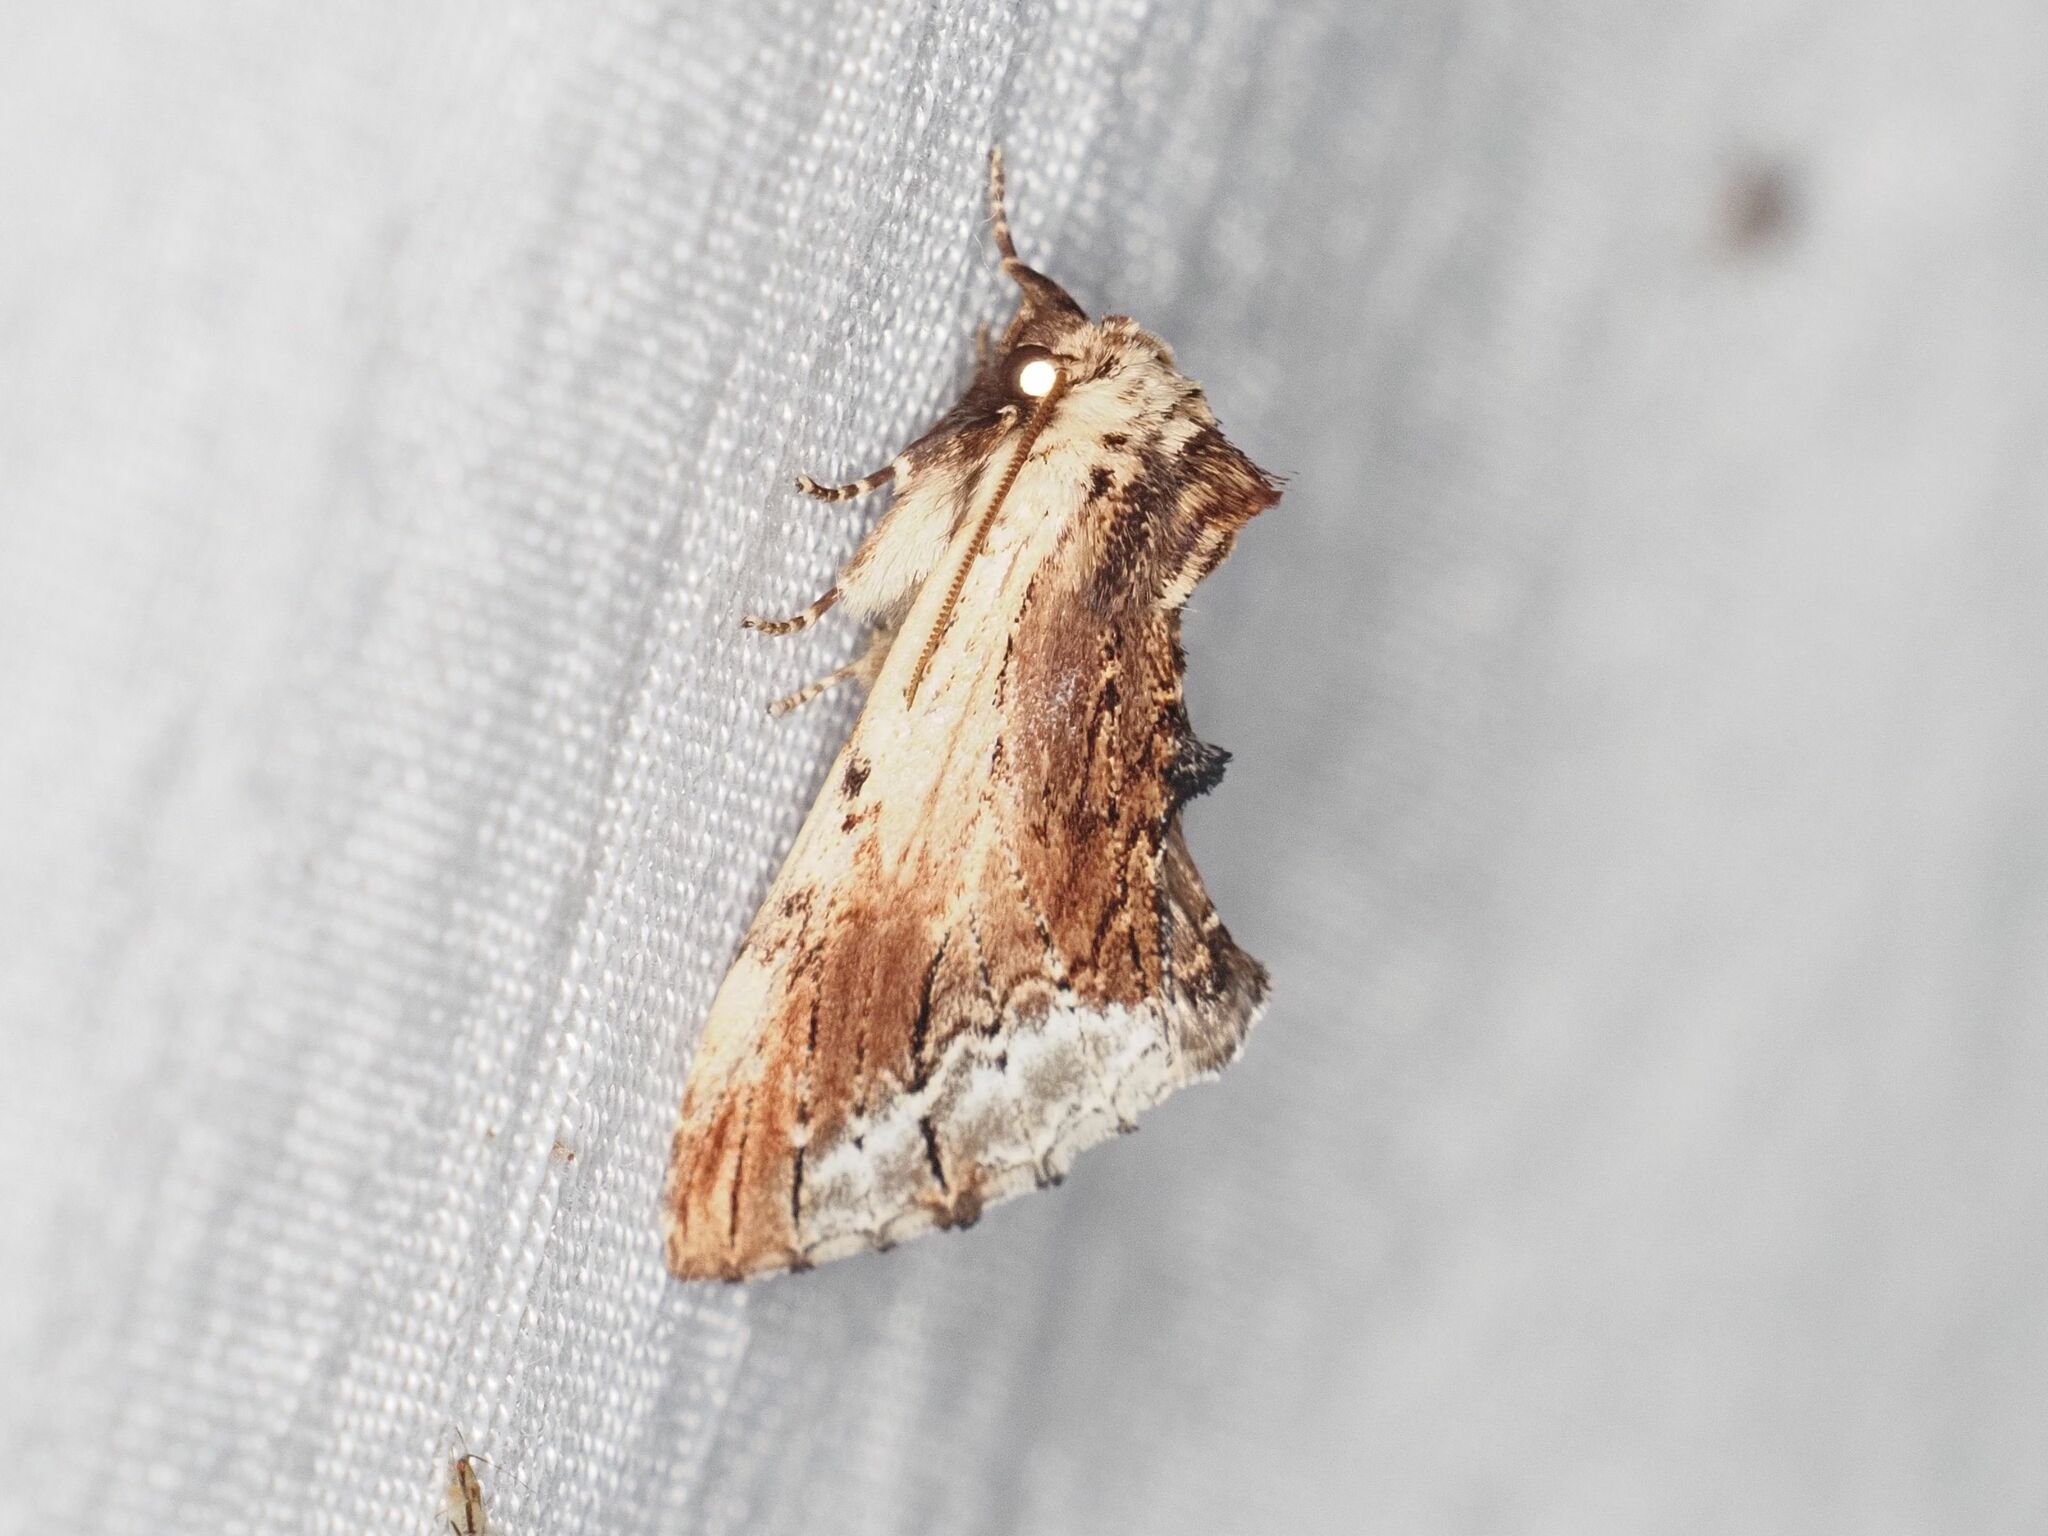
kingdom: Animalia
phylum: Arthropoda
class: Insecta
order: Lepidoptera
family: Notodontidae
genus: Ptilodon
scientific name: Ptilodon cucullina
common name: Maple prominent
